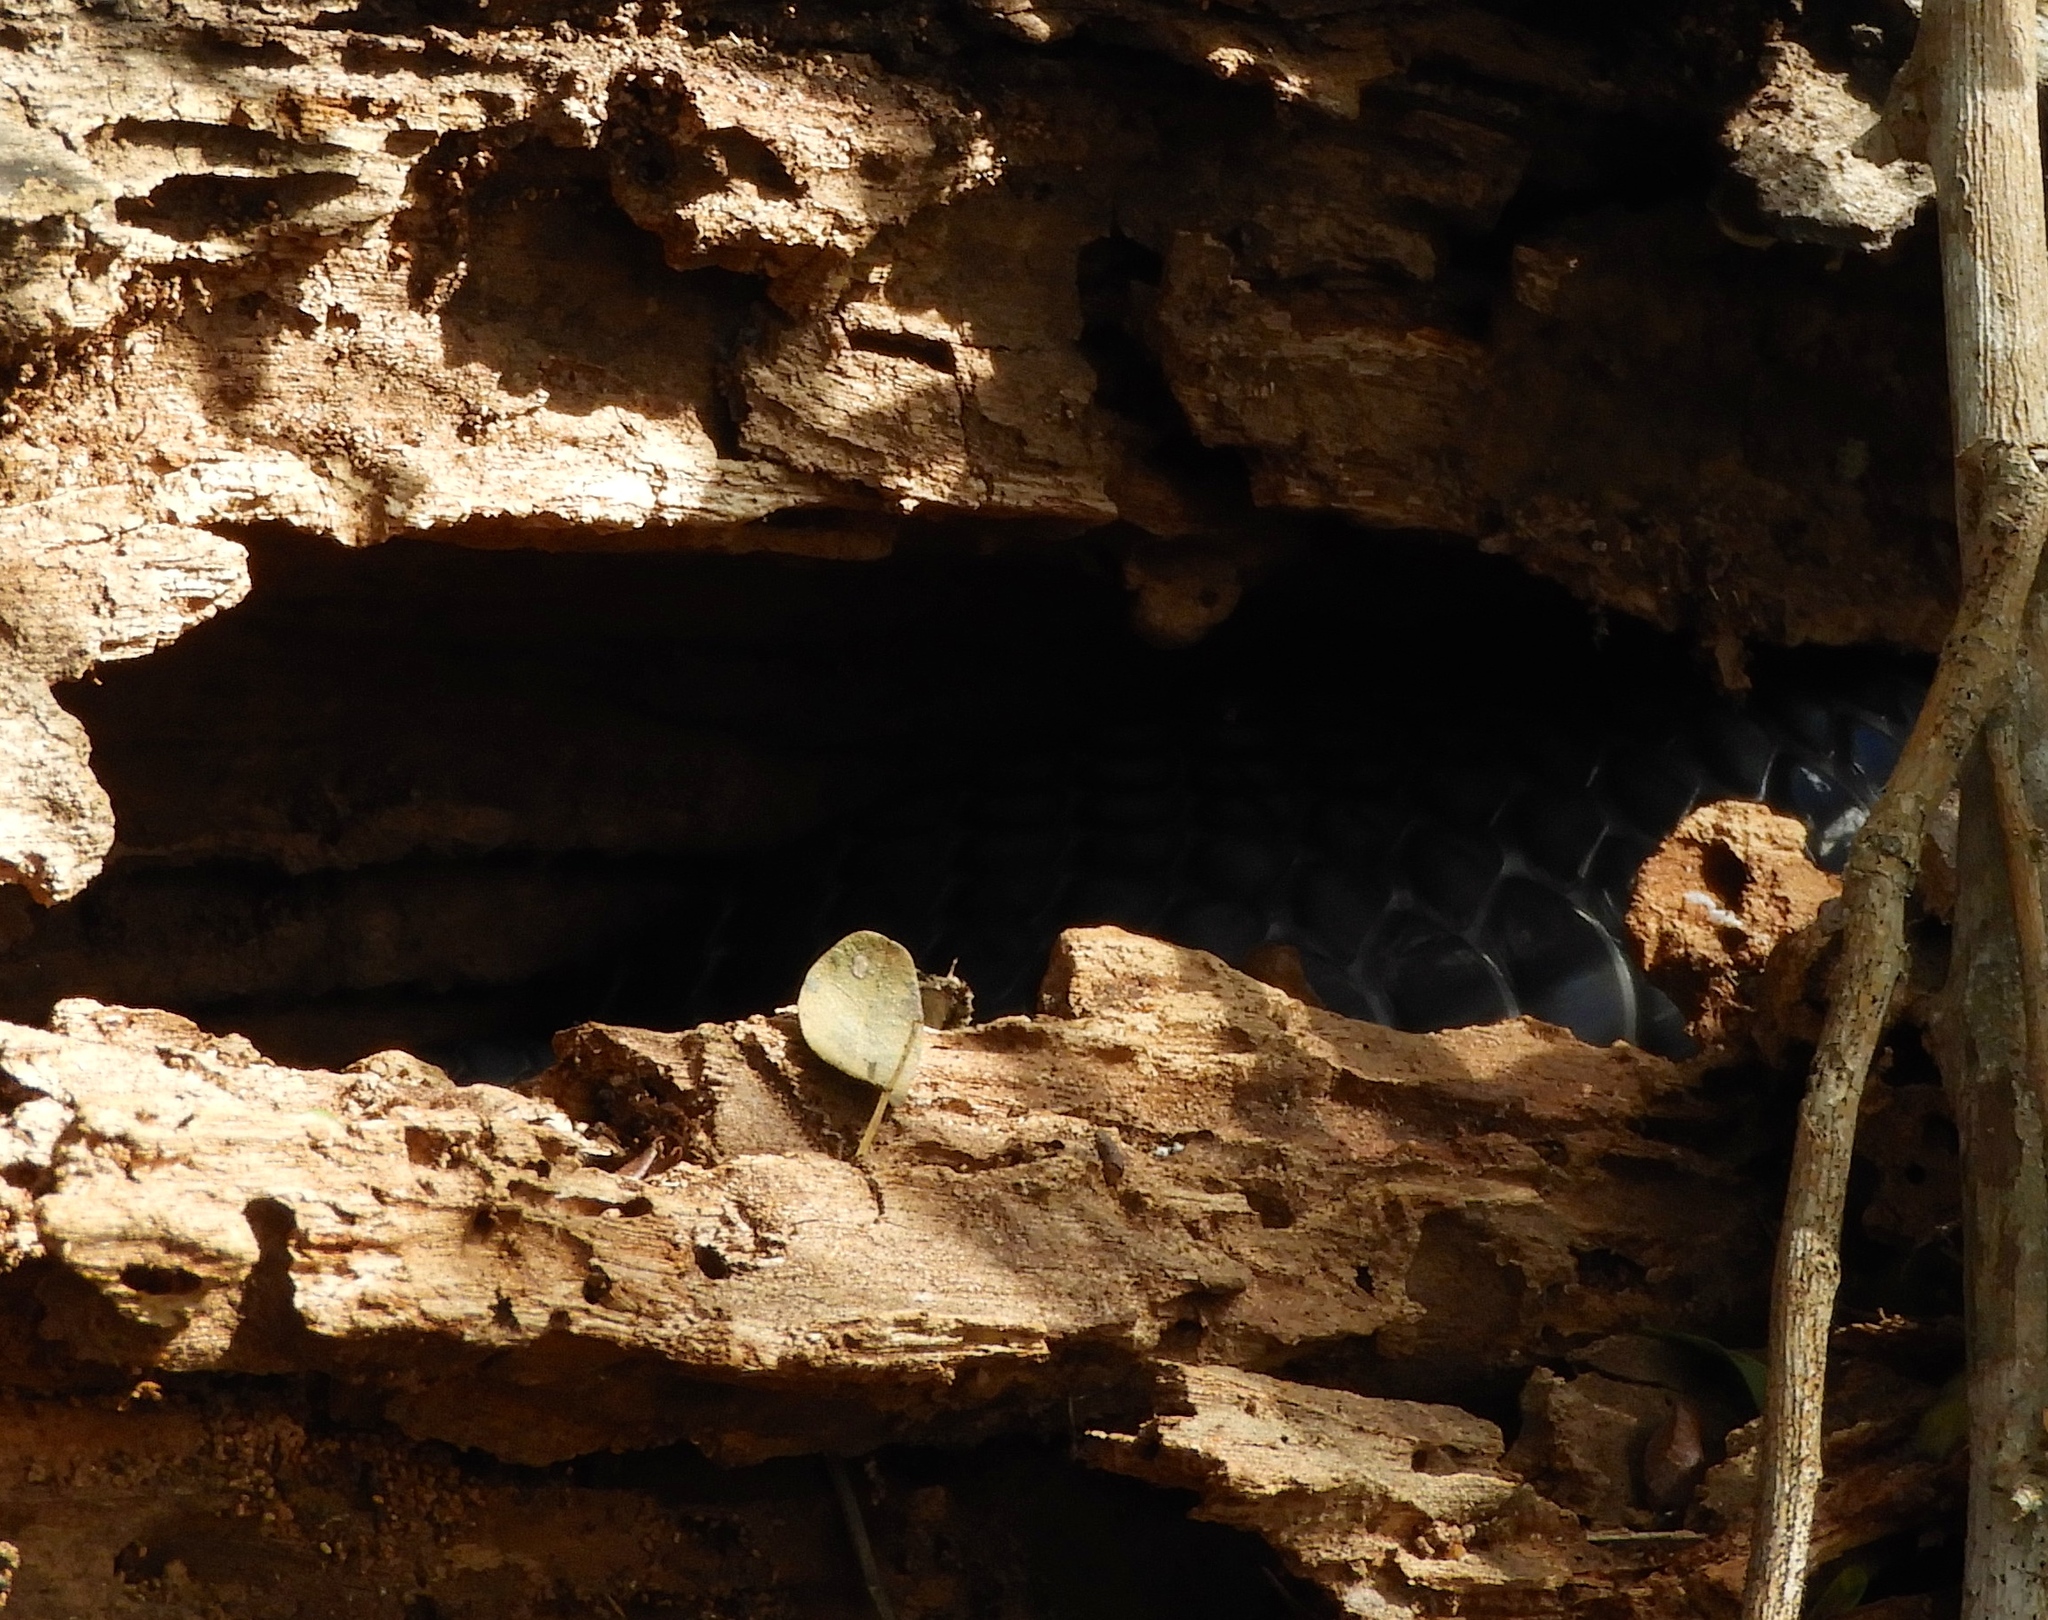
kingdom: Animalia
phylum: Chordata
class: Squamata
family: Colubridae
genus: Drymarchon
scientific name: Drymarchon melanurus
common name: Central american indigo snake
